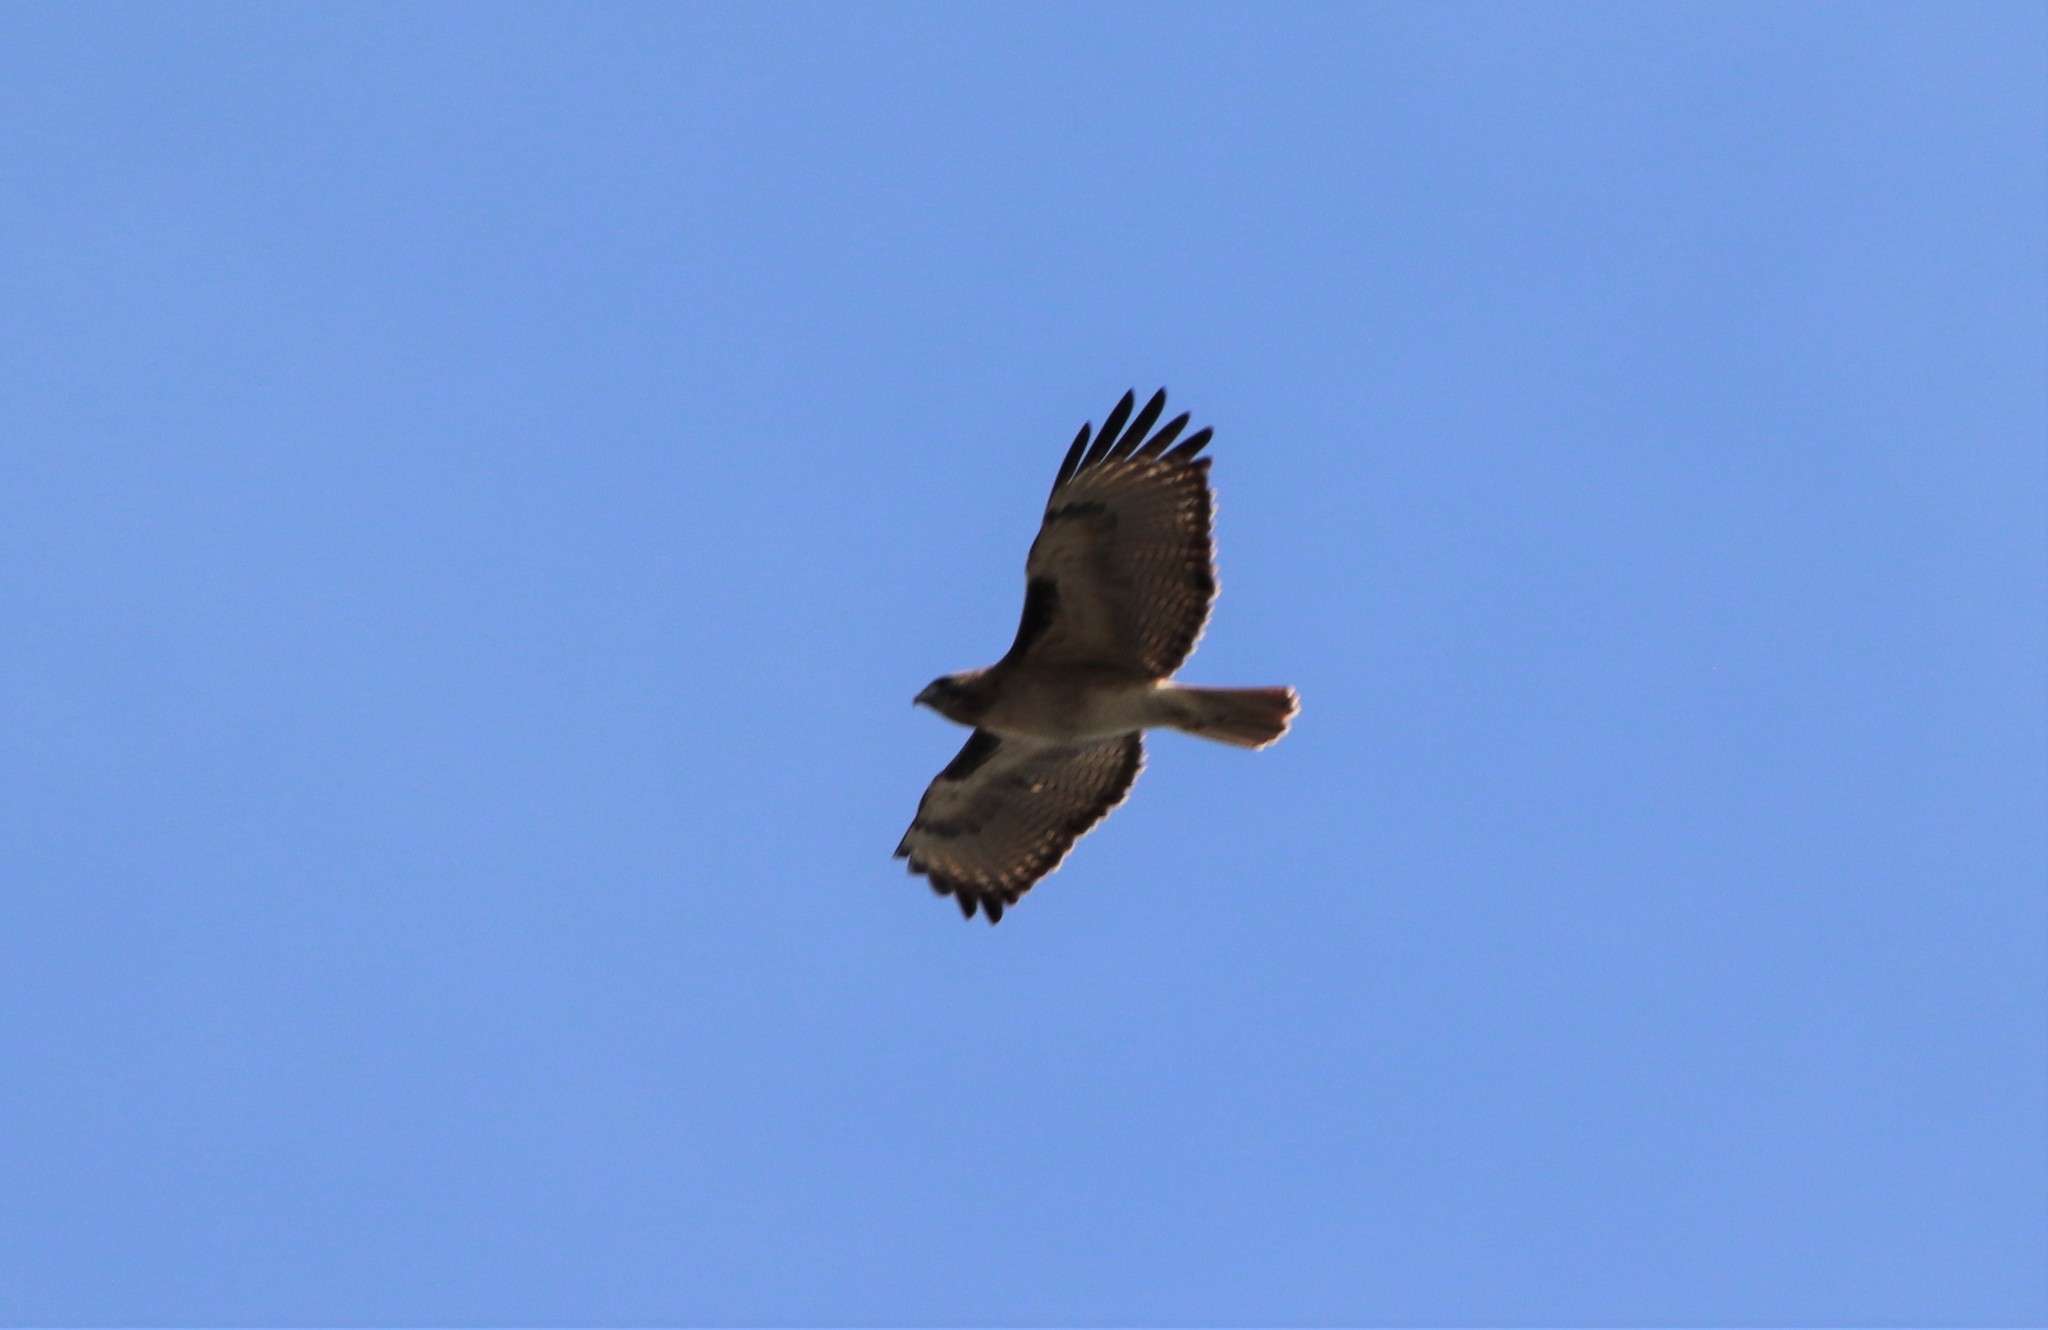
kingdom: Animalia
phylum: Chordata
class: Aves
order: Accipitriformes
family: Accipitridae
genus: Buteo
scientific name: Buteo jamaicensis
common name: Red-tailed hawk
